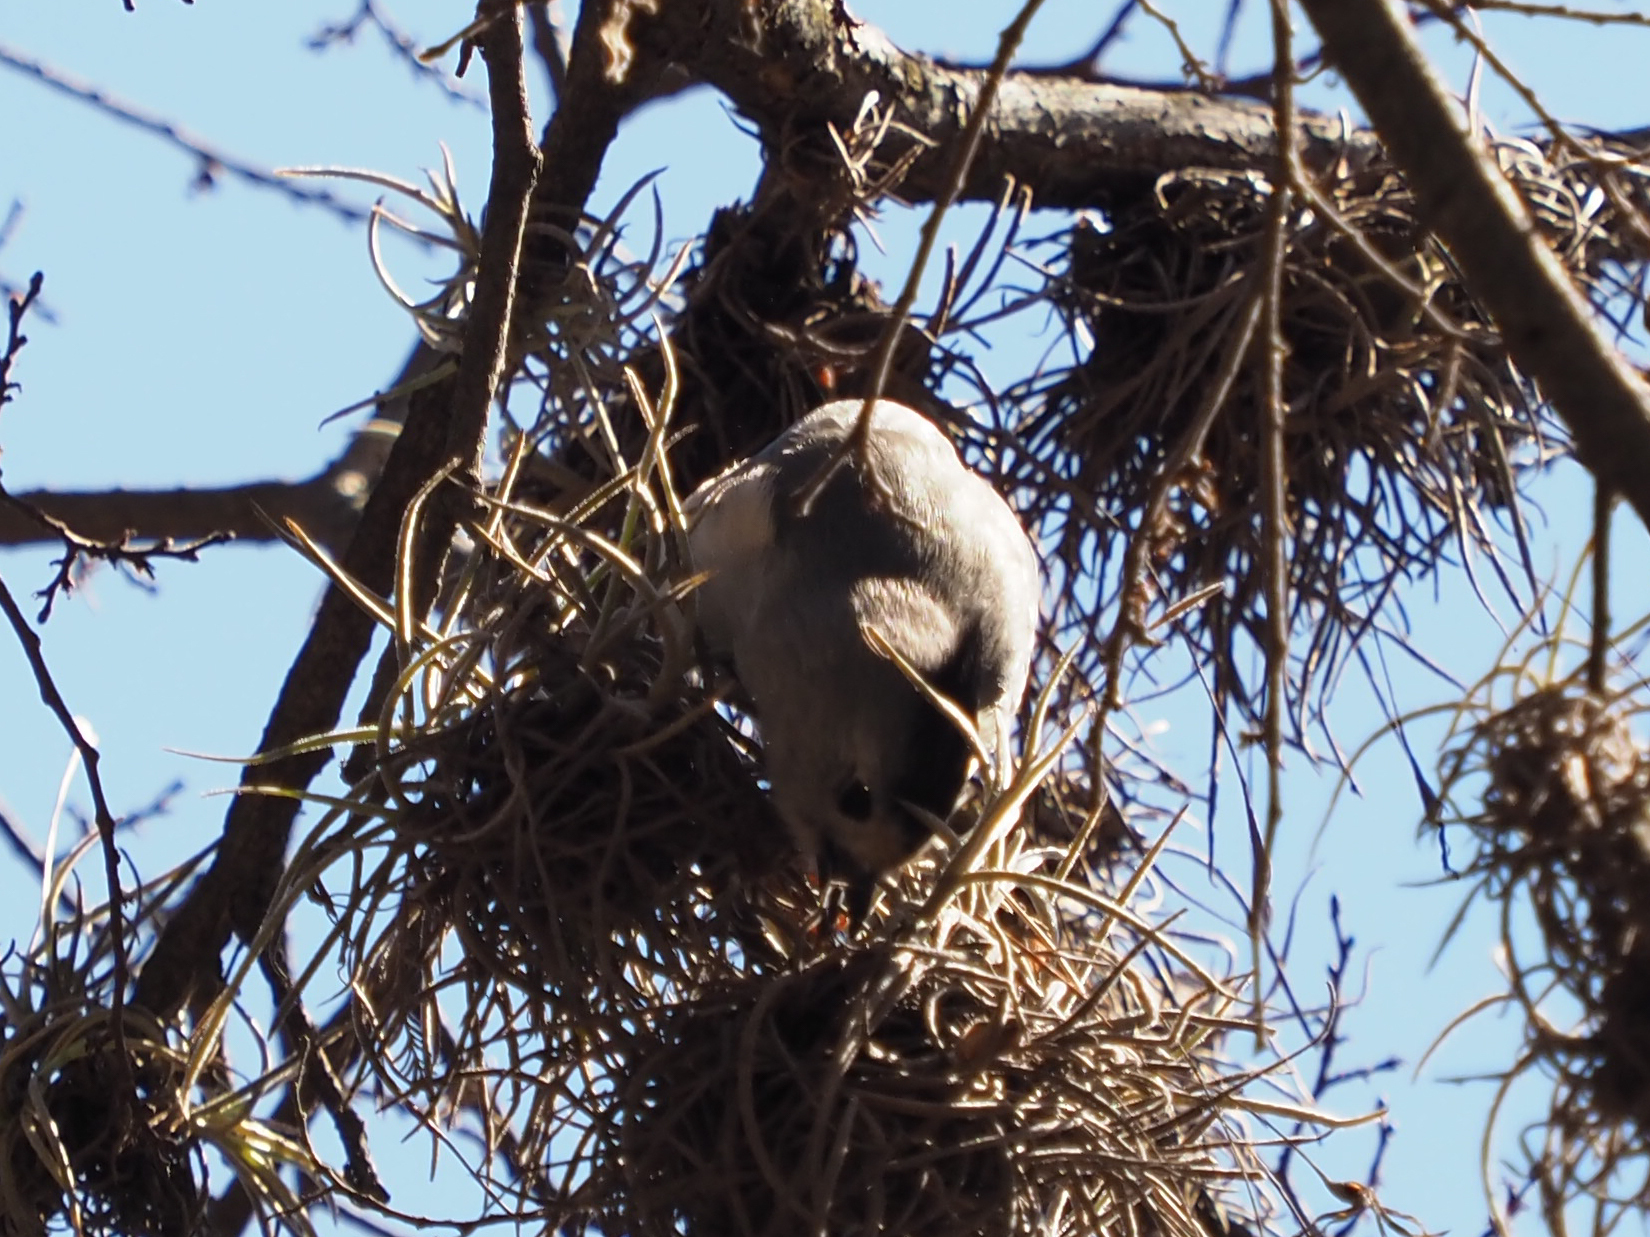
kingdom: Animalia
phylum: Chordata
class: Aves
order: Passeriformes
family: Paridae
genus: Baeolophus
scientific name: Baeolophus atricristatus
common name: Black-crested titmouse
